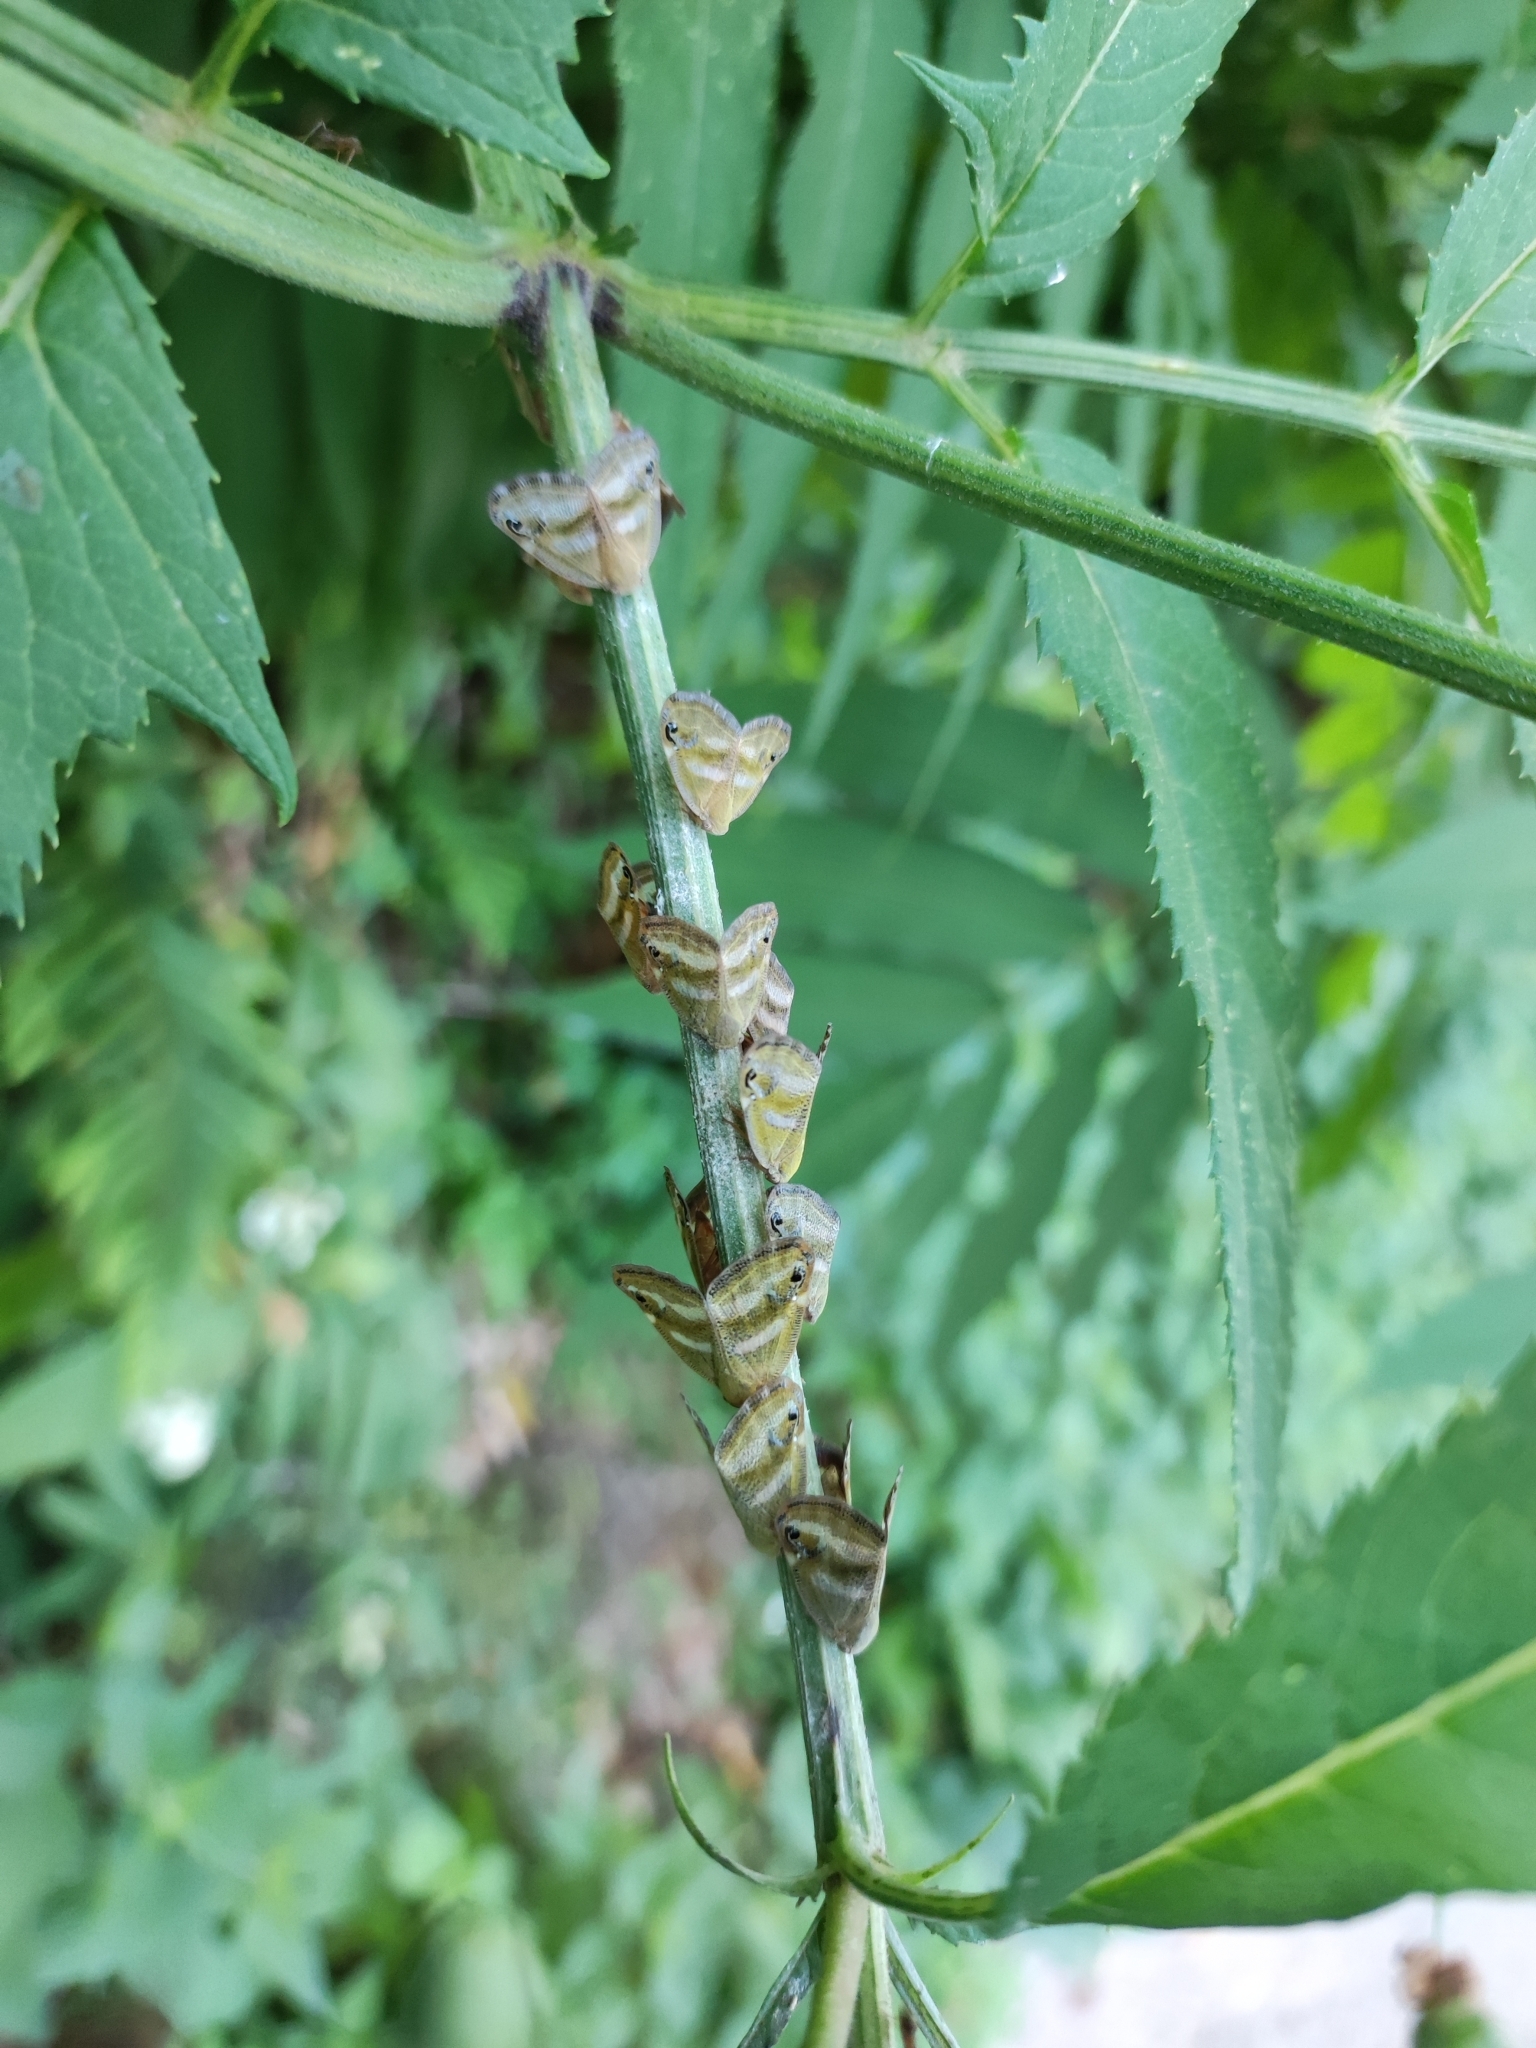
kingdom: Animalia
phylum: Arthropoda
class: Insecta
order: Hemiptera
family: Ricaniidae
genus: Orosanga
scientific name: Orosanga japonica
